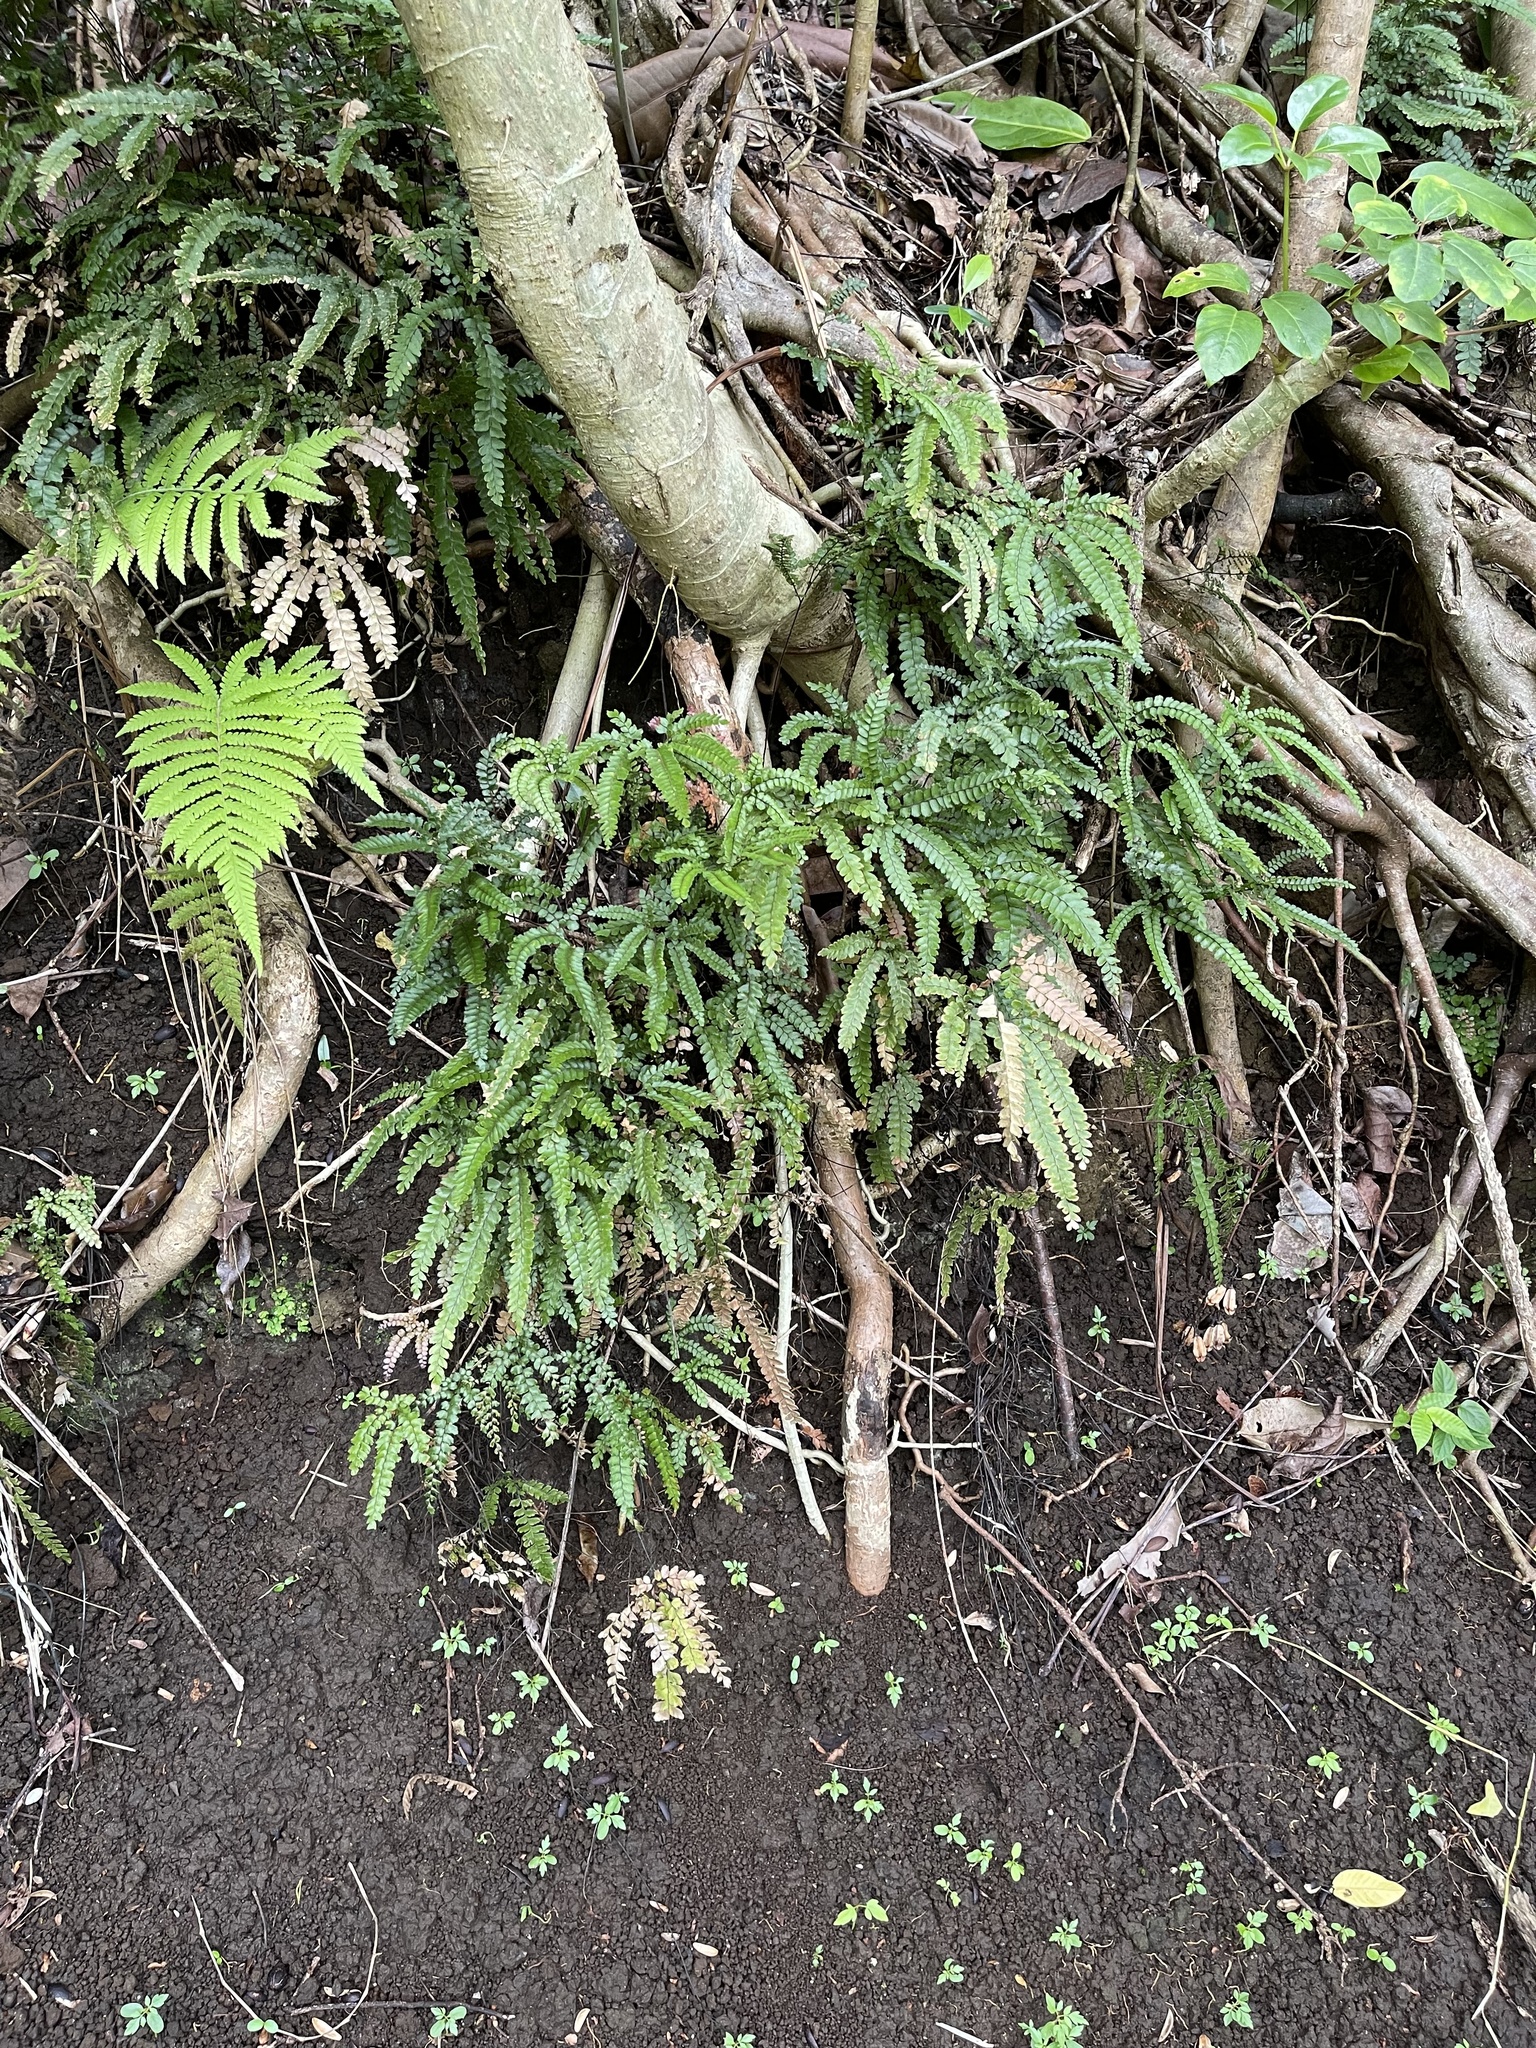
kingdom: Plantae
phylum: Tracheophyta
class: Polypodiopsida
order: Polypodiales
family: Pteridaceae
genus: Adiantum
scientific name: Adiantum hispidulum
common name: Rough maidenhair
